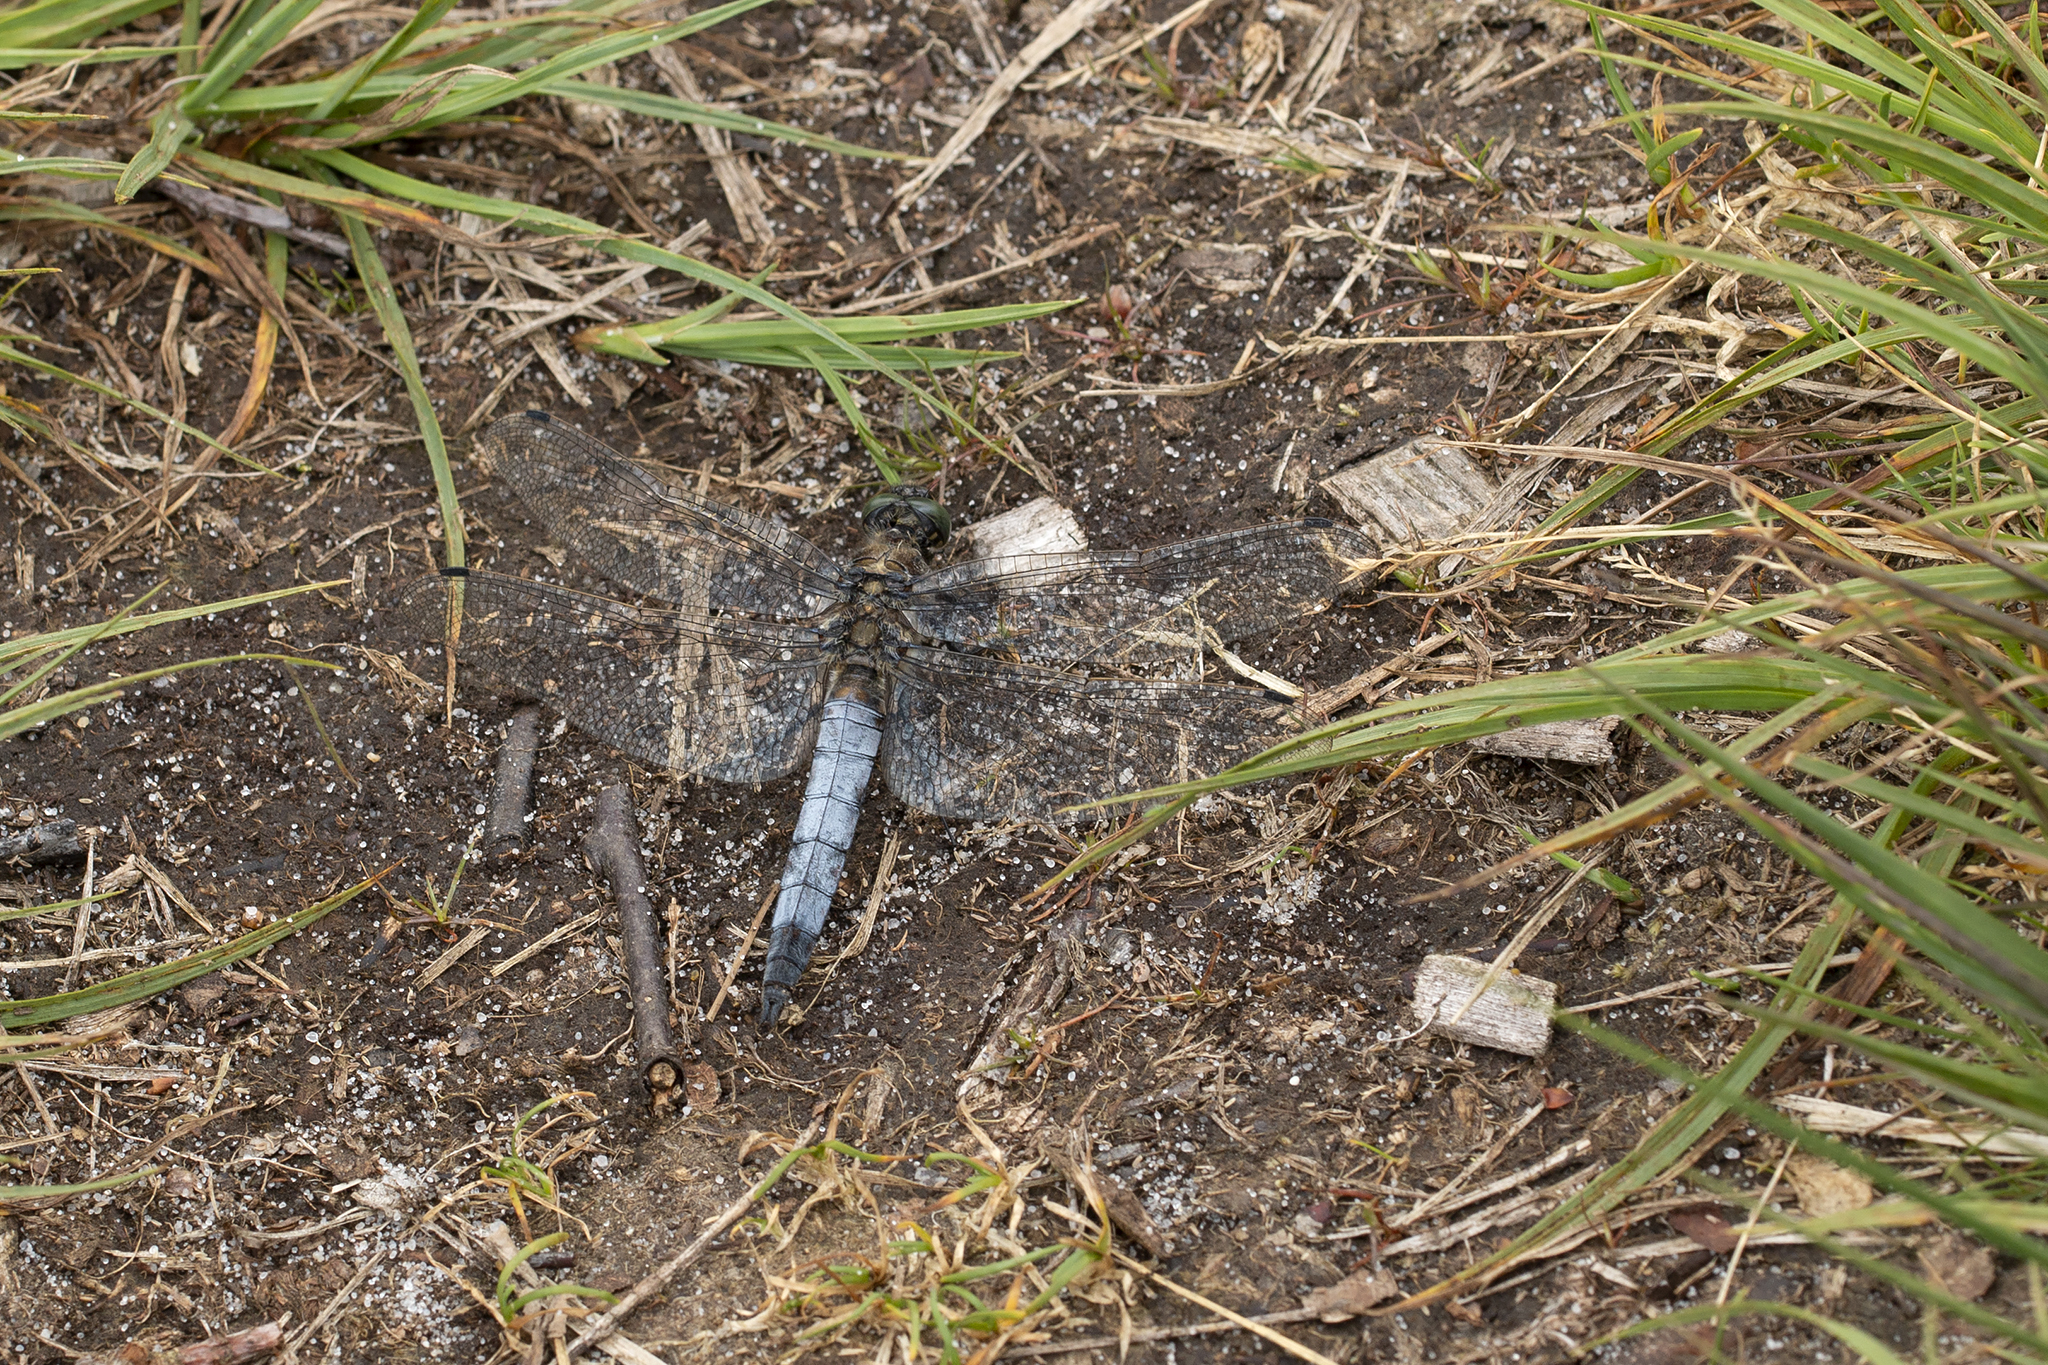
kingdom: Animalia
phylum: Arthropoda
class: Insecta
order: Odonata
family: Libellulidae
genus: Orthetrum
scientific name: Orthetrum cancellatum
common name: Black-tailed skimmer
